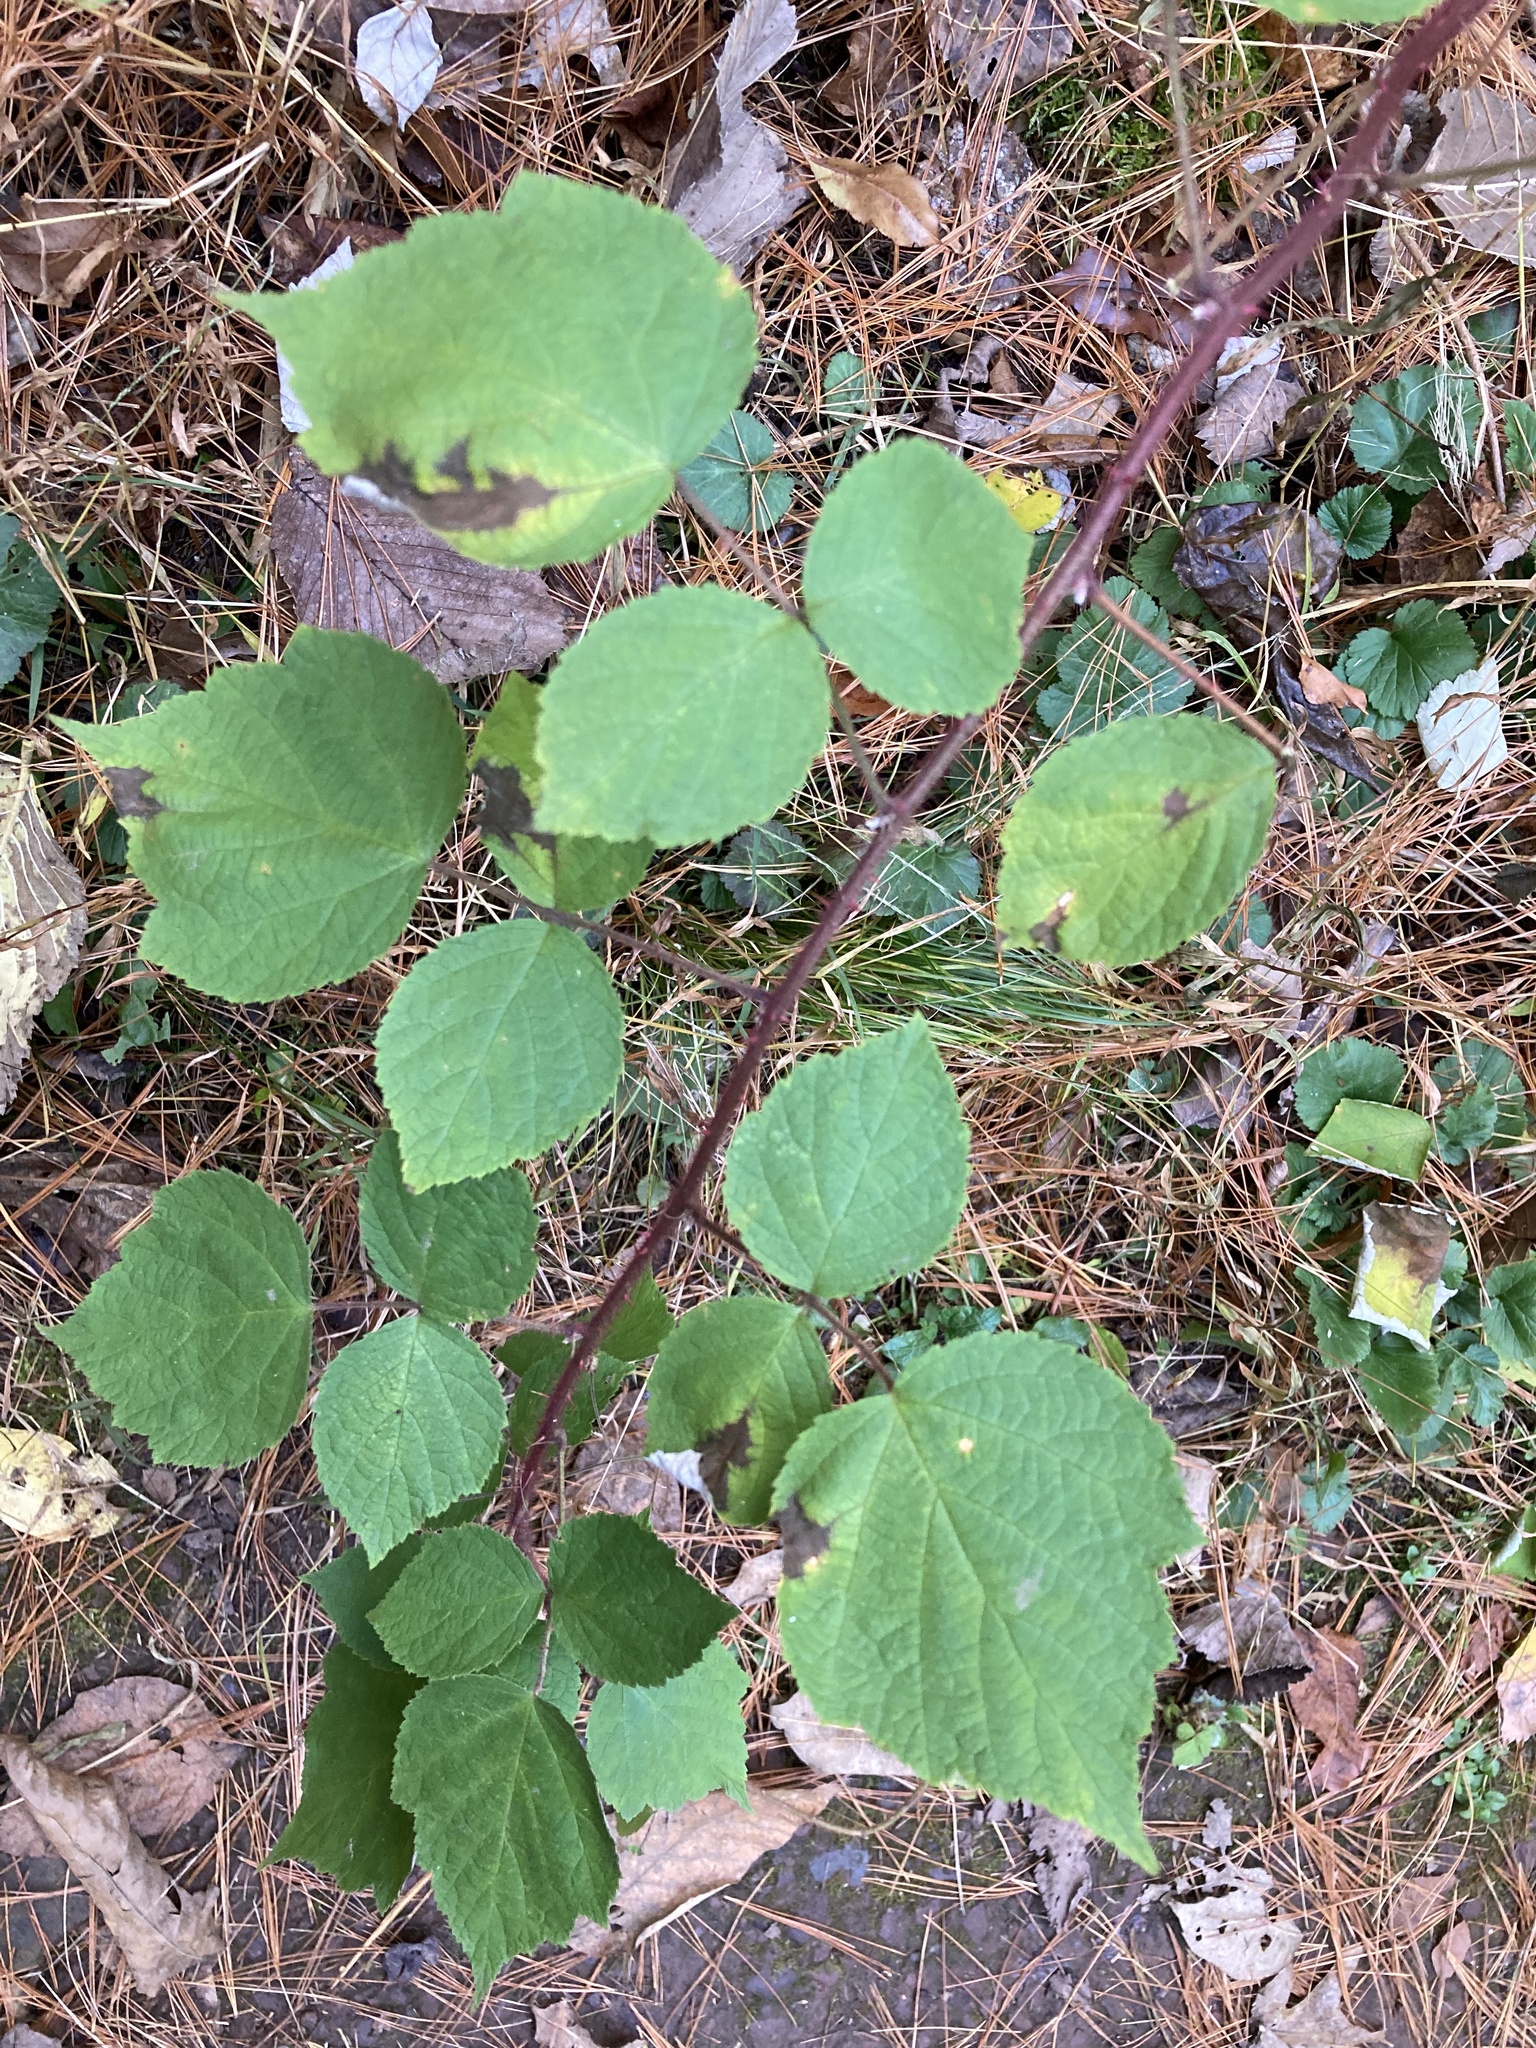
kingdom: Plantae
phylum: Tracheophyta
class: Magnoliopsida
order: Rosales
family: Rosaceae
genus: Rubus
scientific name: Rubus phoenicolasius
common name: Japanese wineberry
